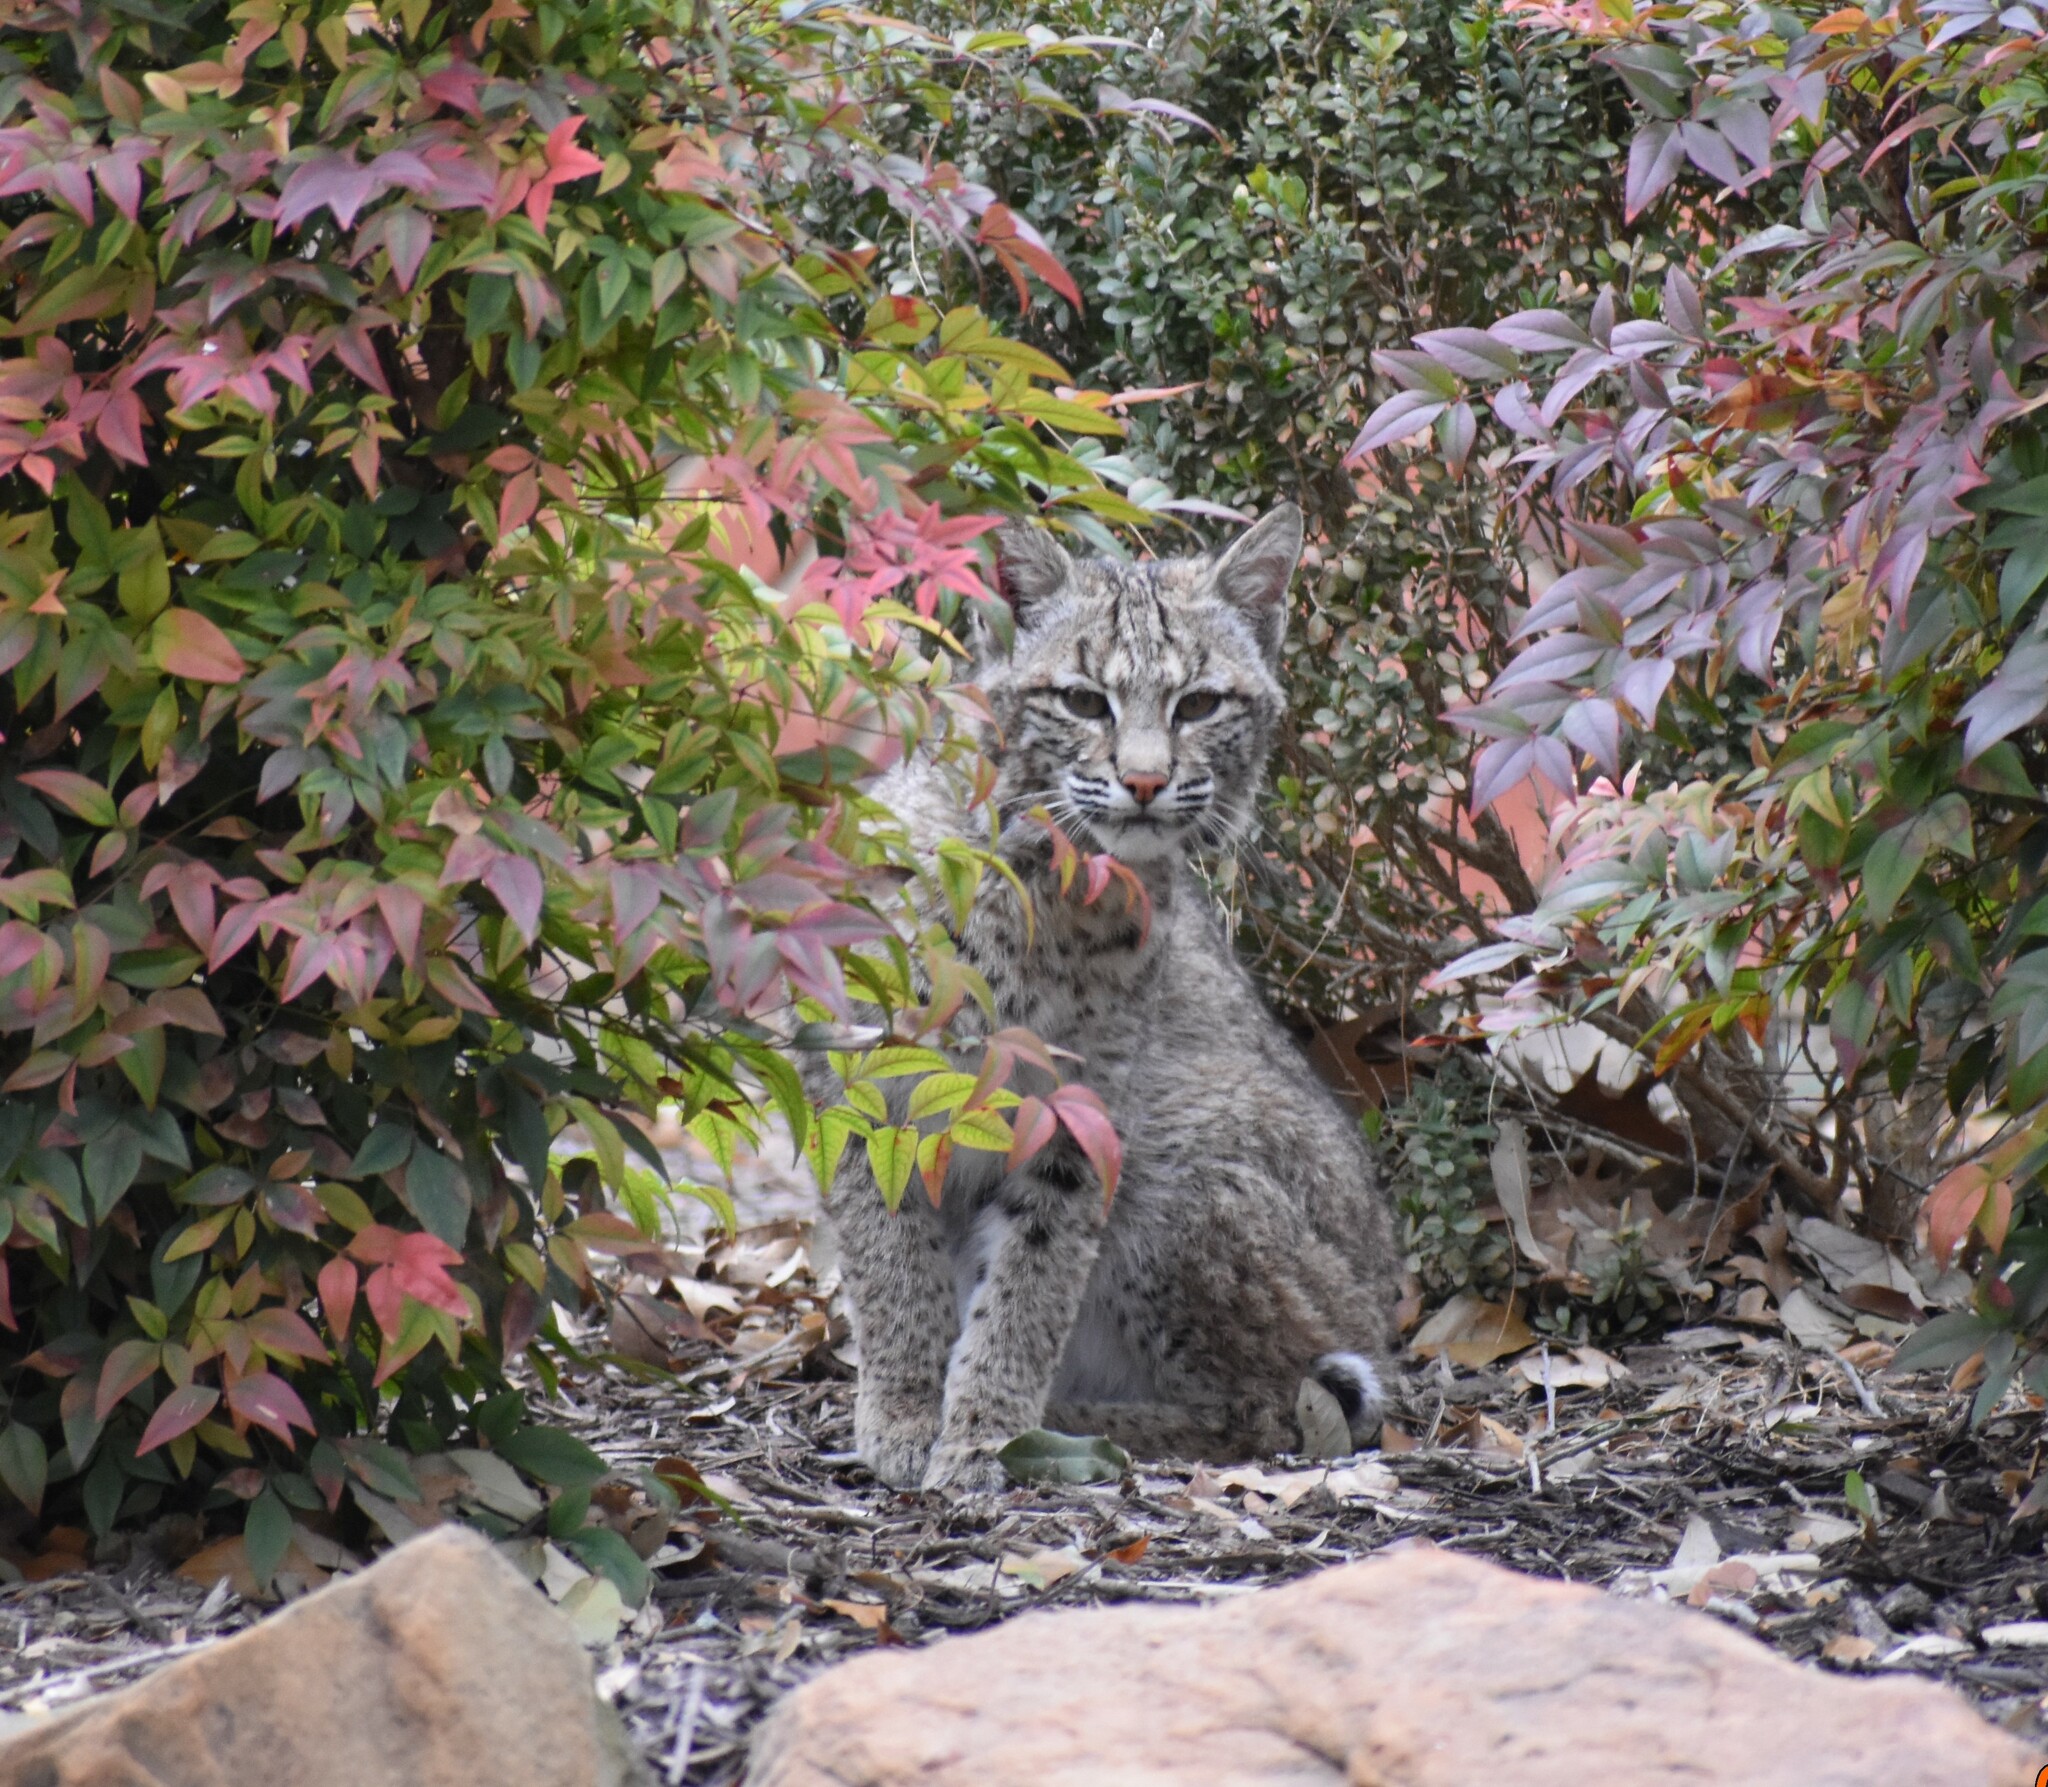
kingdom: Animalia
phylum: Chordata
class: Mammalia
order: Carnivora
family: Felidae
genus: Lynx
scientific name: Lynx rufus
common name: Bobcat
